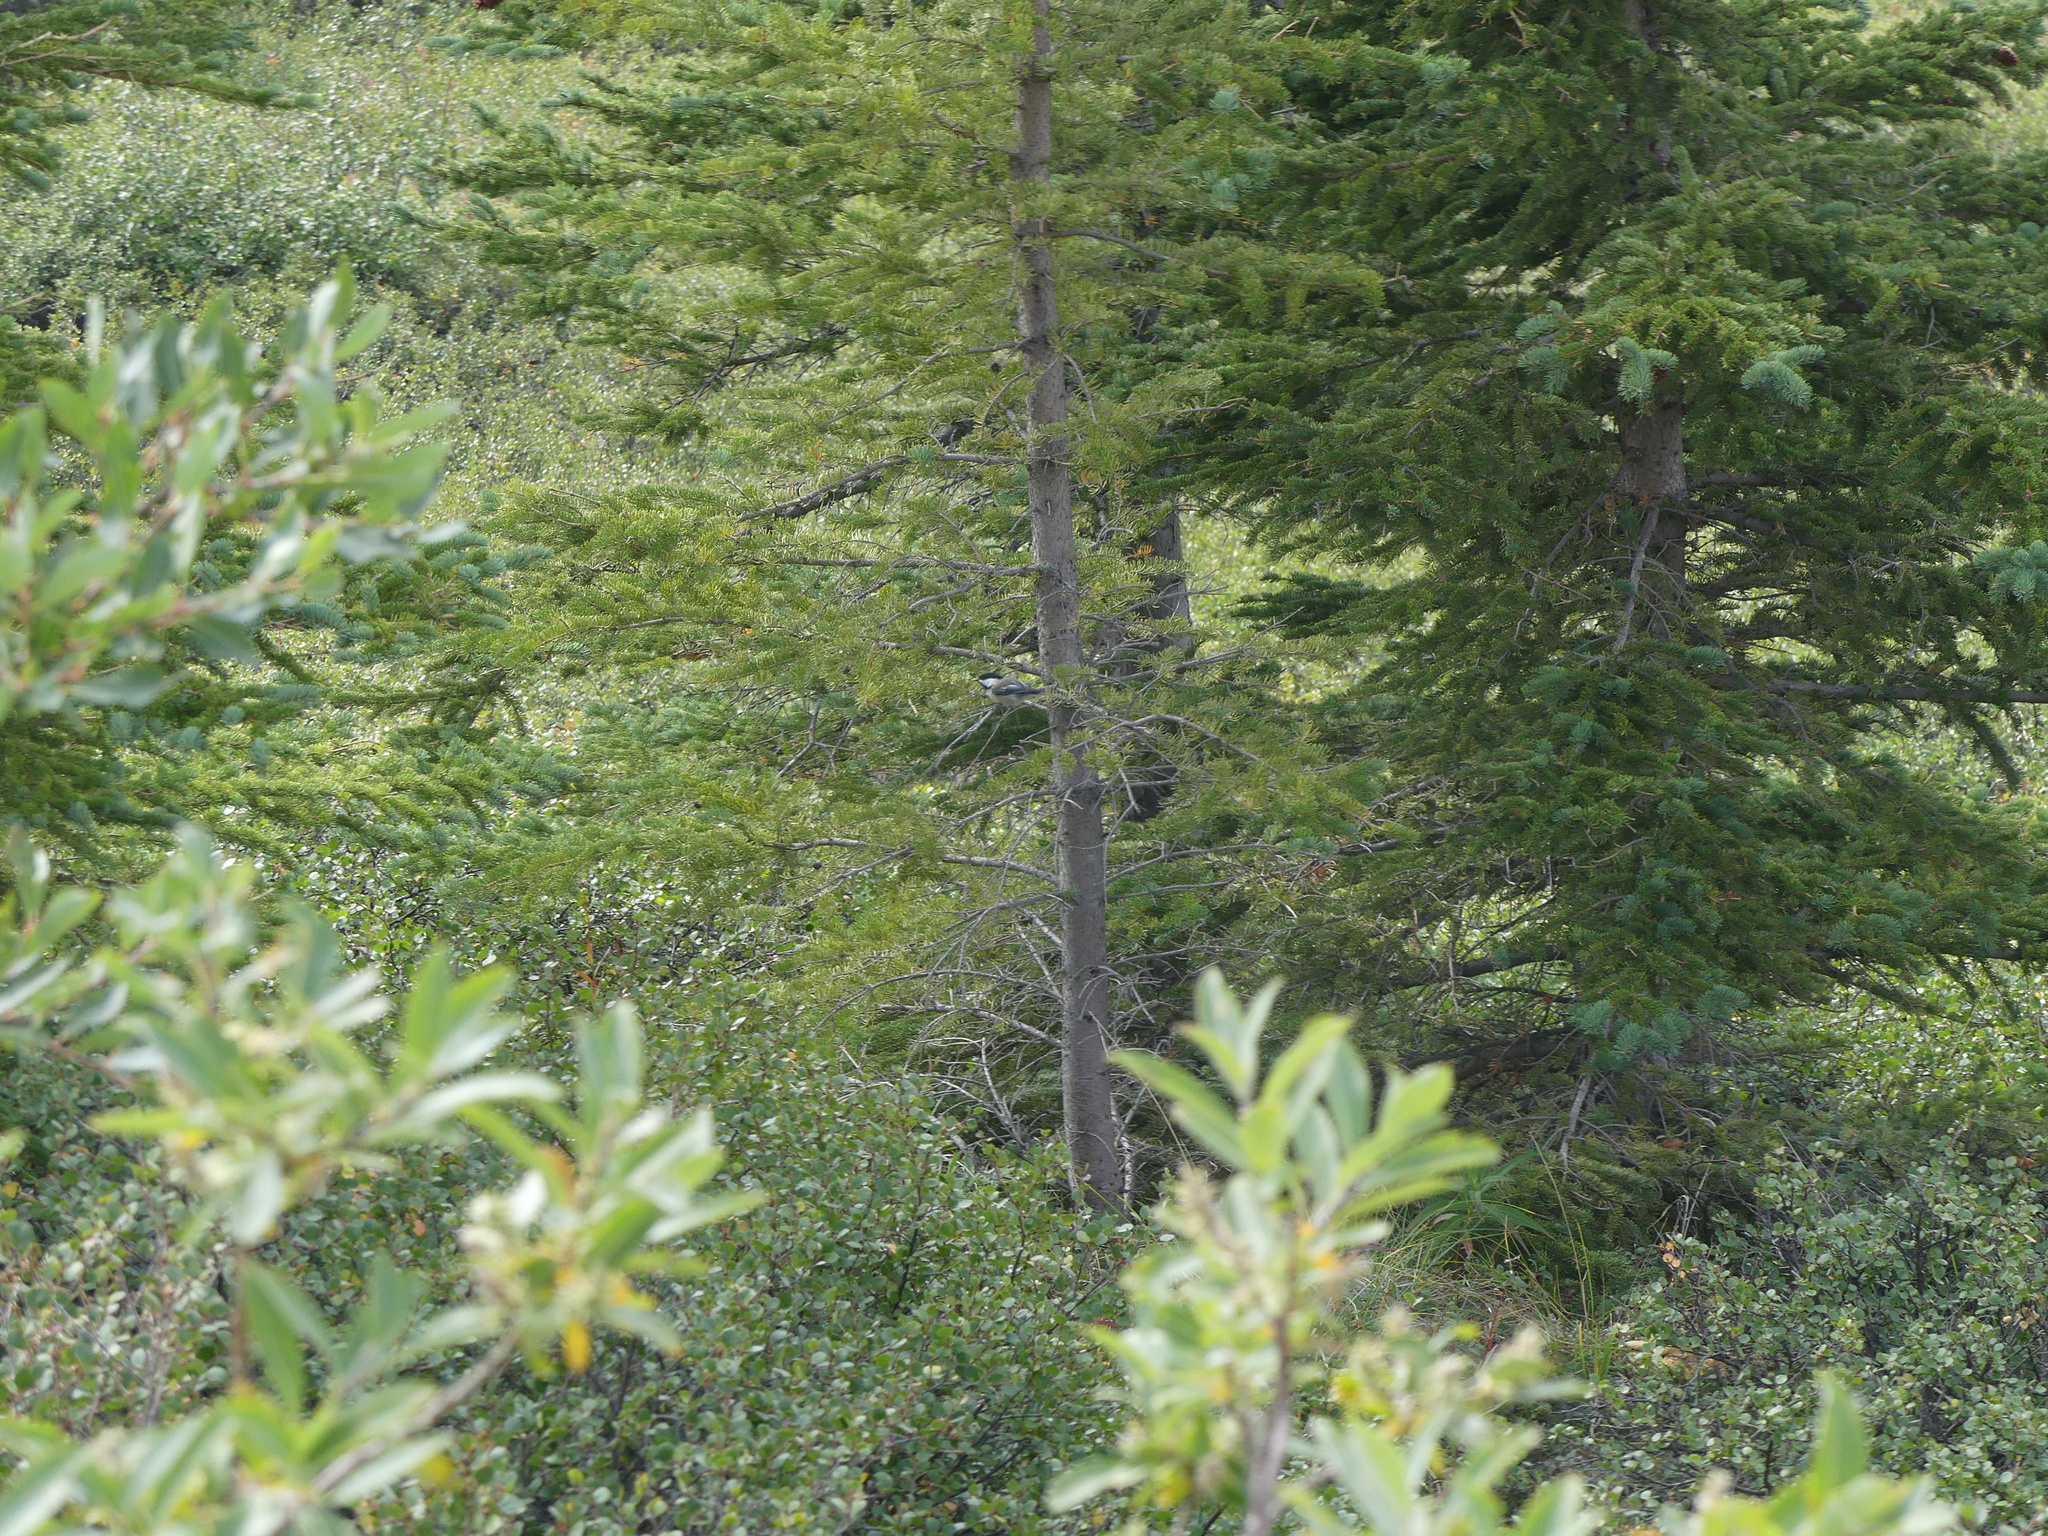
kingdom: Animalia
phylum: Chordata
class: Aves
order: Passeriformes
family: Paridae
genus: Poecile
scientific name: Poecile atricapillus
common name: Black-capped chickadee
